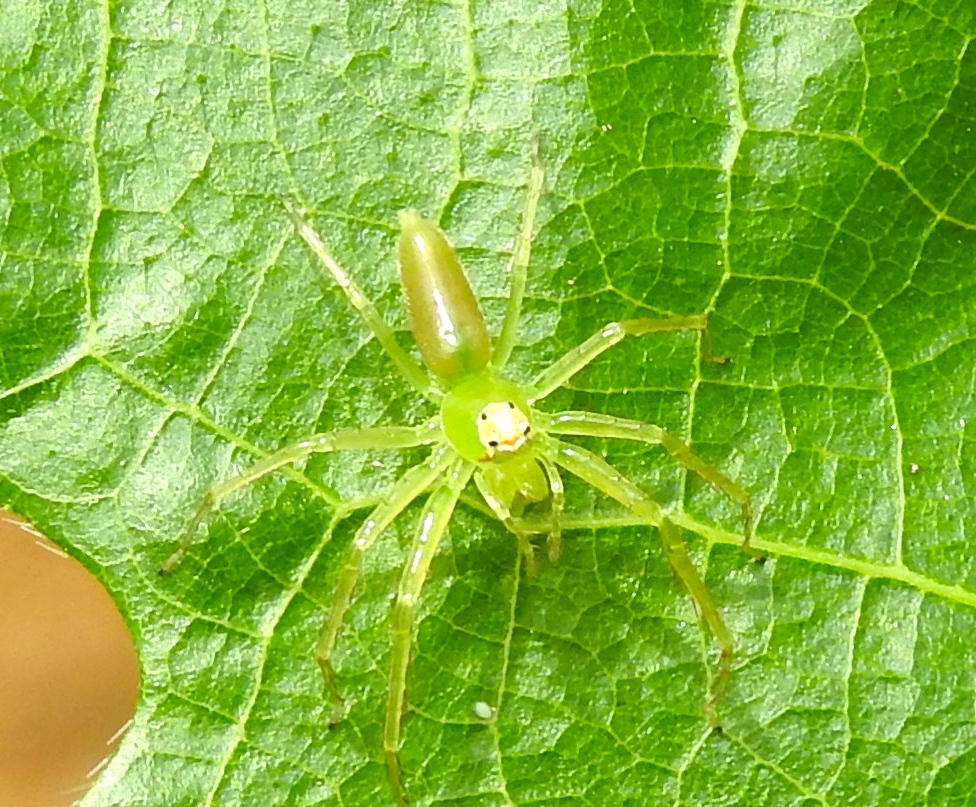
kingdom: Animalia
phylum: Arthropoda
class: Arachnida
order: Araneae
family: Salticidae
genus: Lyssomanes
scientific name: Lyssomanes
